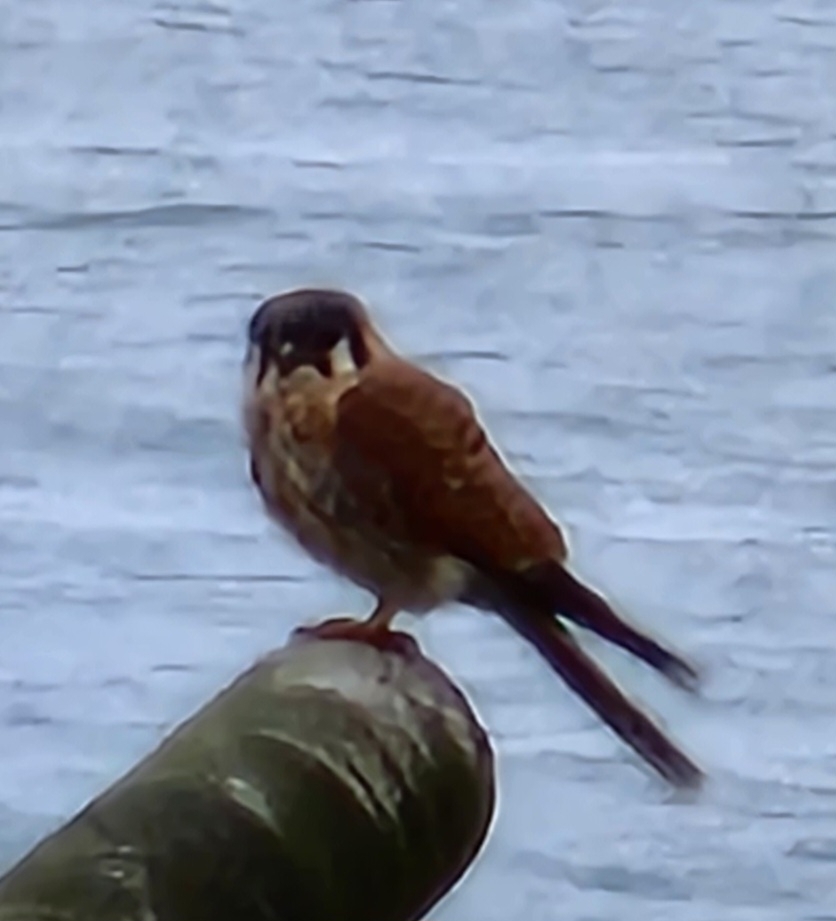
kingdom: Animalia
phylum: Chordata
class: Aves
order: Falconiformes
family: Falconidae
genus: Falco
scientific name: Falco sparverius
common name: American kestrel
